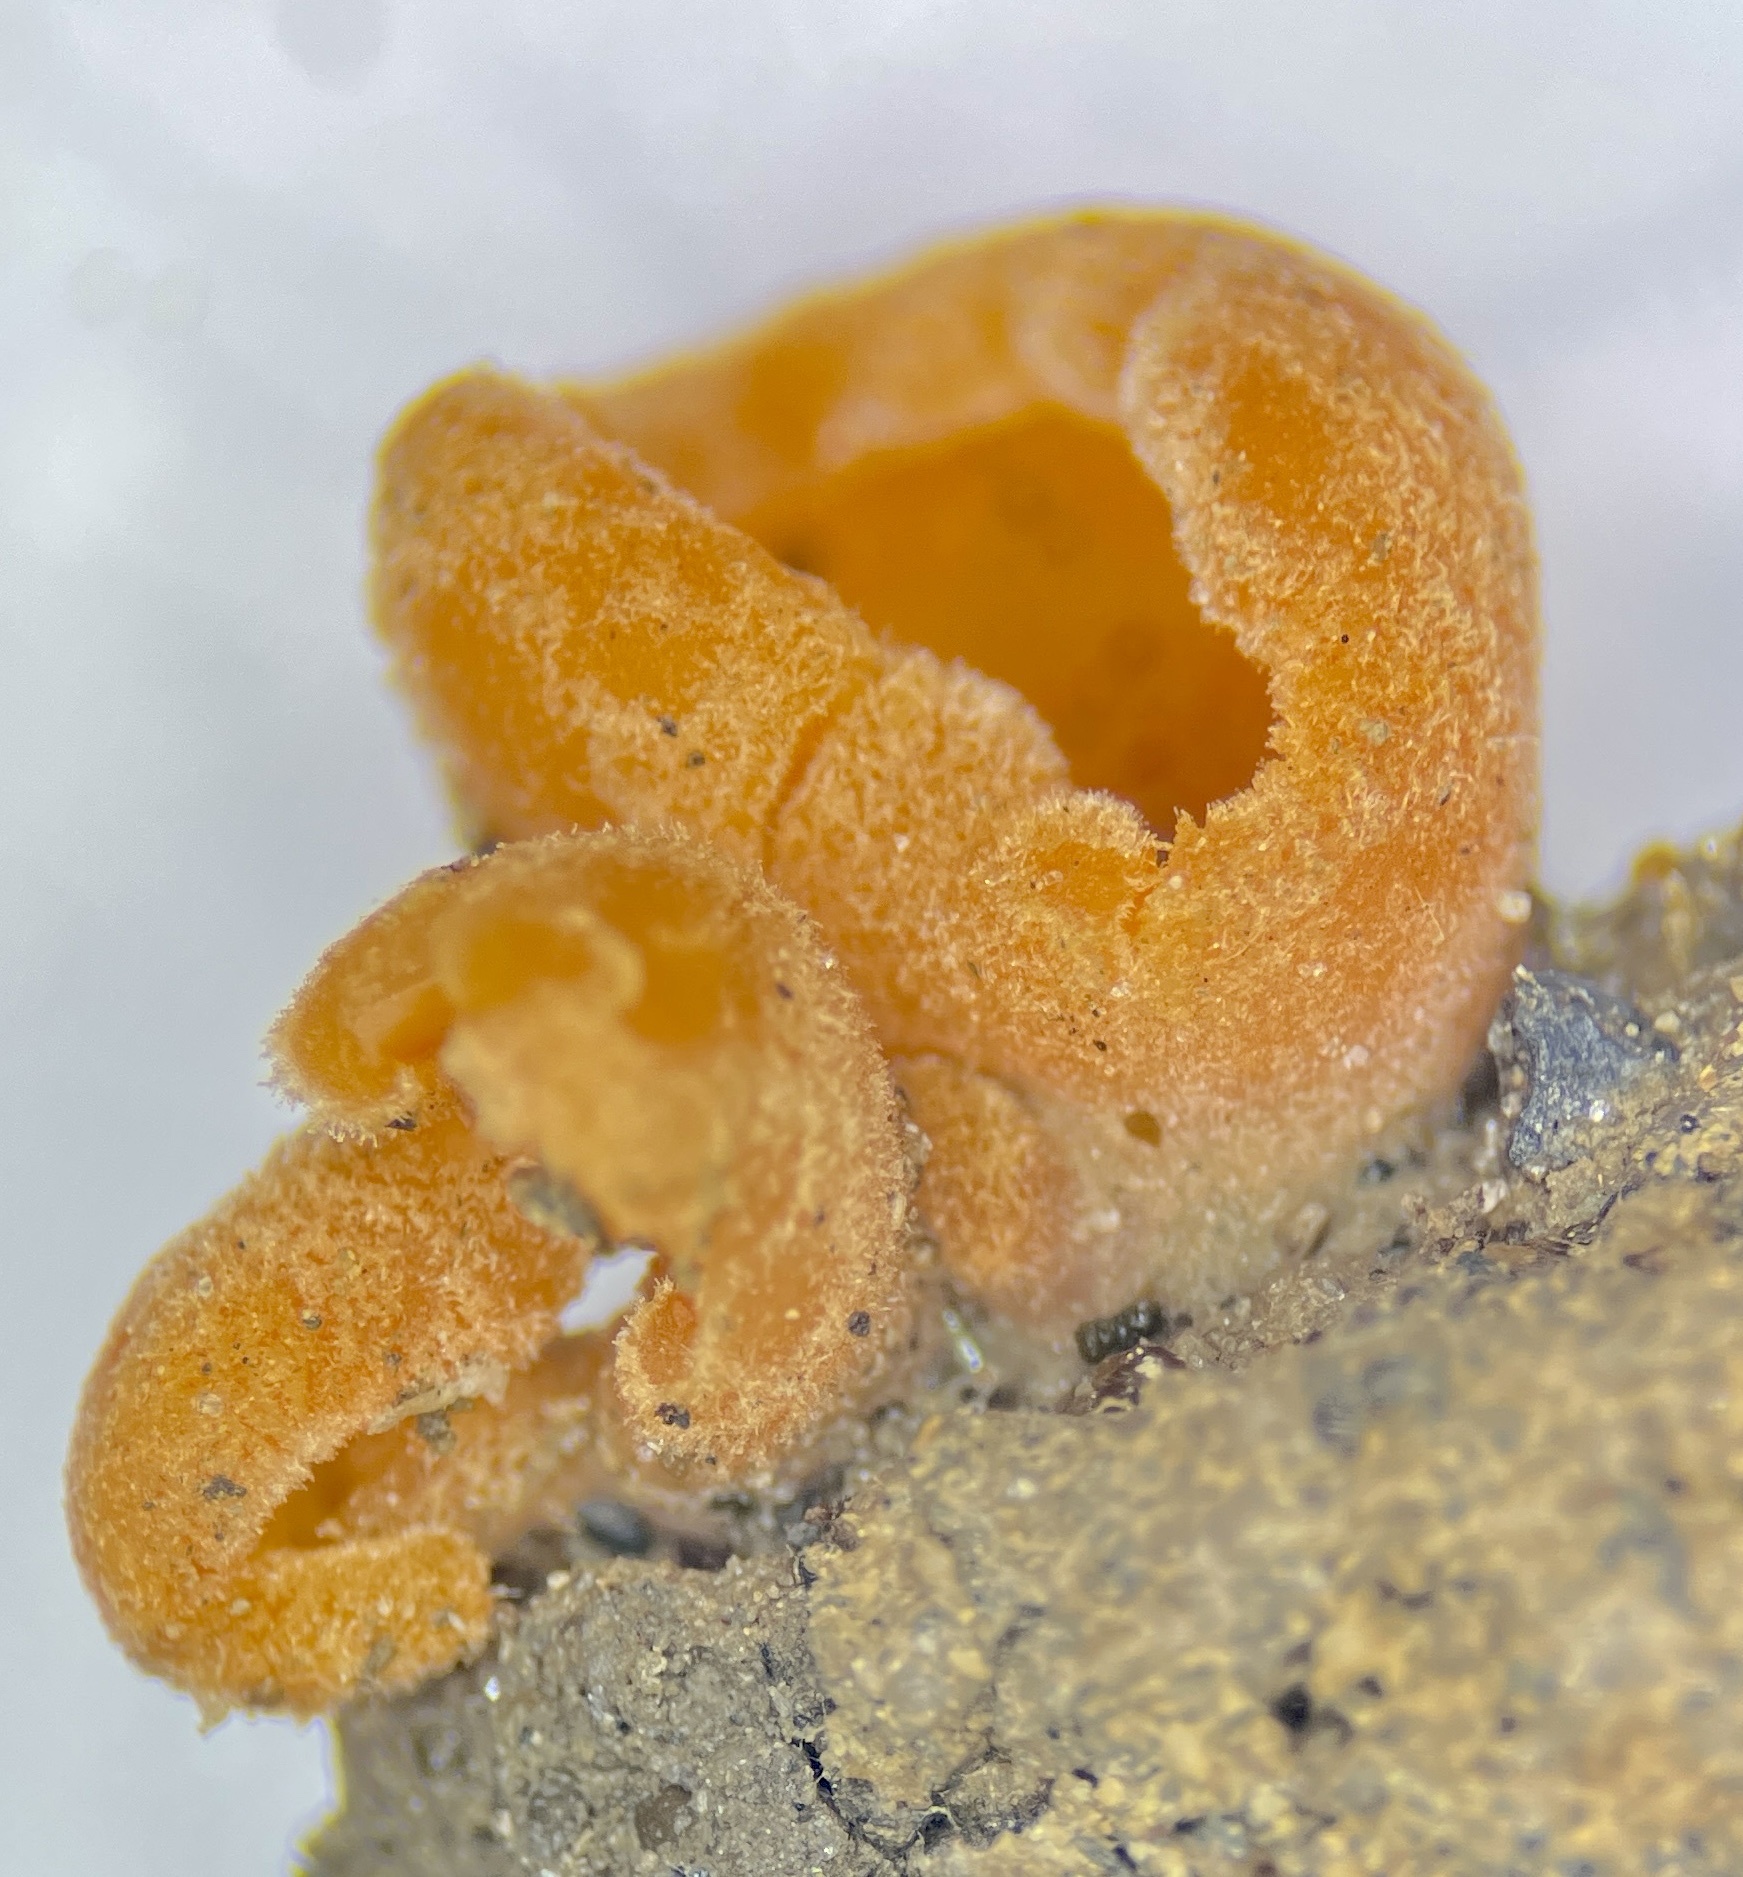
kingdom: Fungi
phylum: Ascomycota
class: Pezizomycetes
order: Pezizales
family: Pyronemataceae
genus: Aleuria
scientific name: Aleuria aurantia
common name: Orange peel fungus
